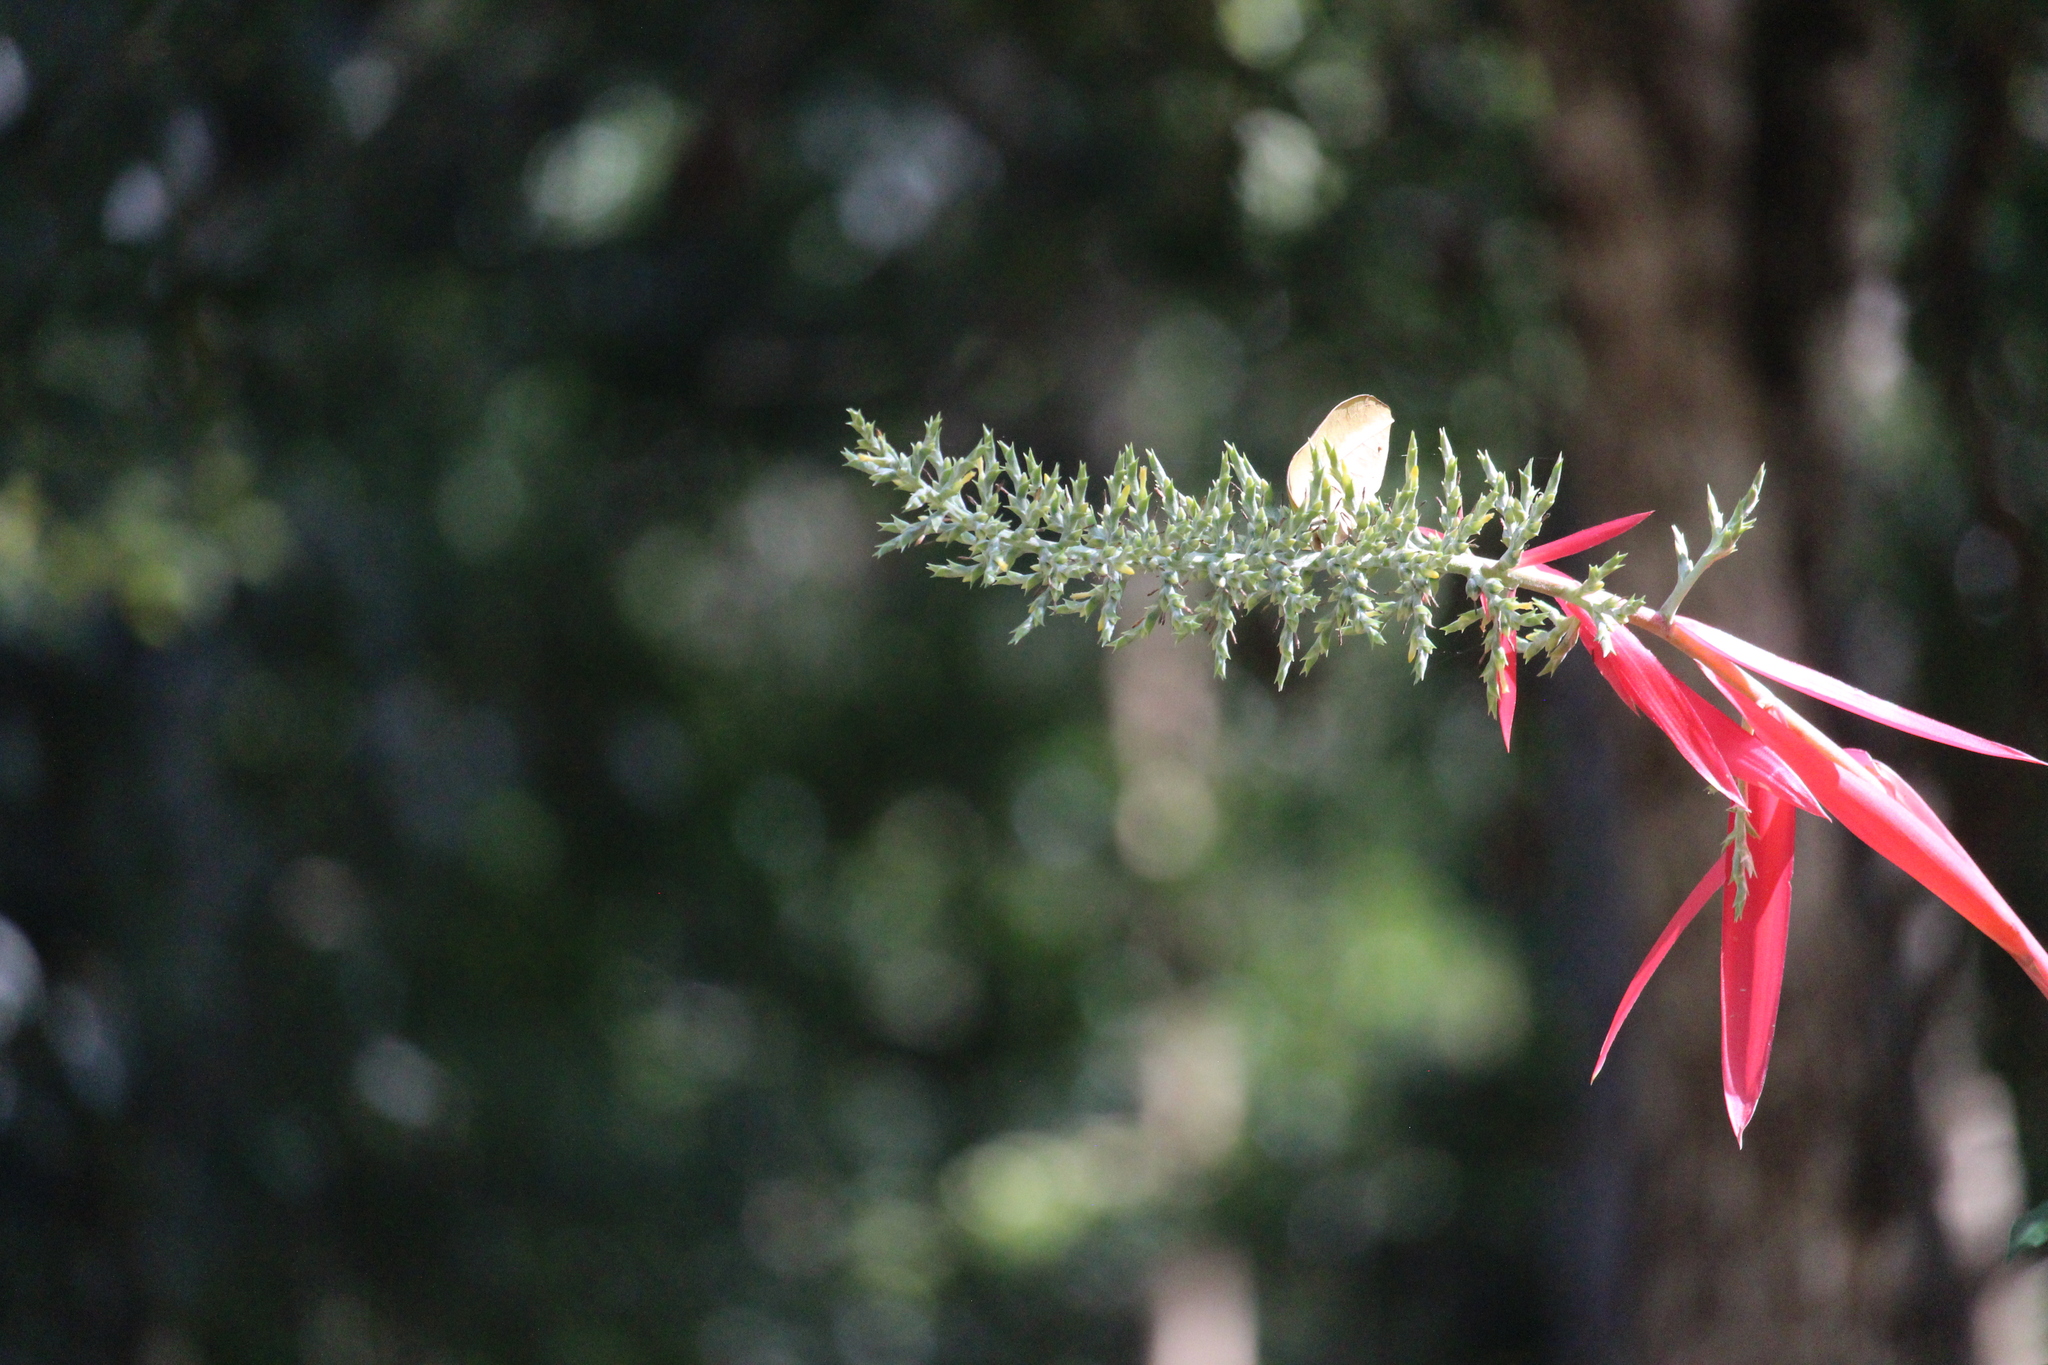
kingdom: Plantae
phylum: Tracheophyta
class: Liliopsida
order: Poales
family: Bromeliaceae
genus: Aechmea
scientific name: Aechmea bracteata
